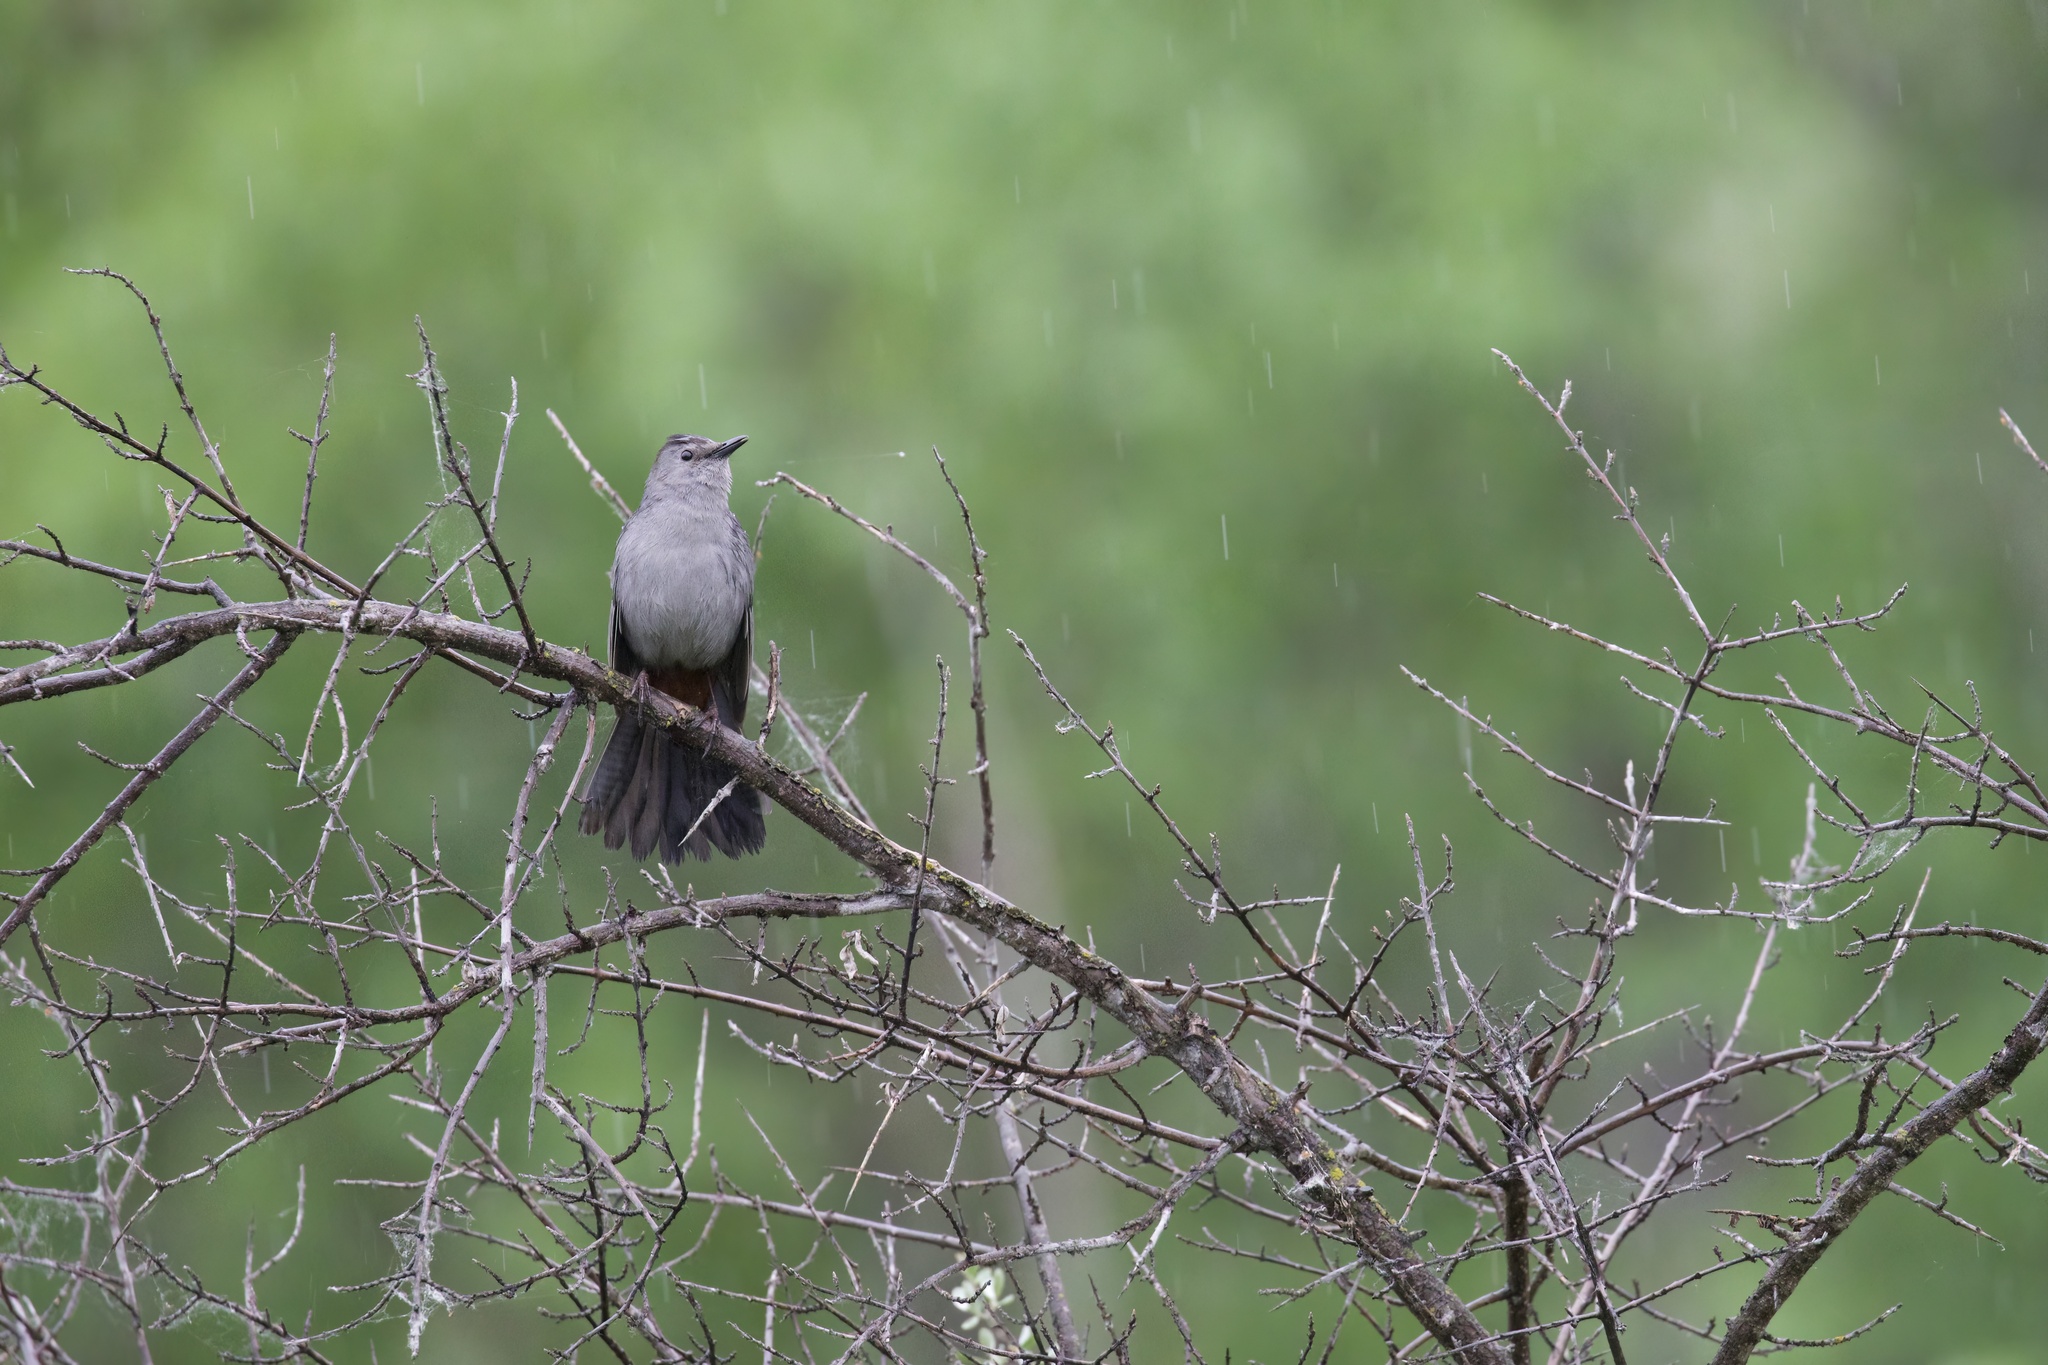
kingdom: Animalia
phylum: Chordata
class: Aves
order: Passeriformes
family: Mimidae
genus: Dumetella
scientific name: Dumetella carolinensis
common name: Gray catbird
